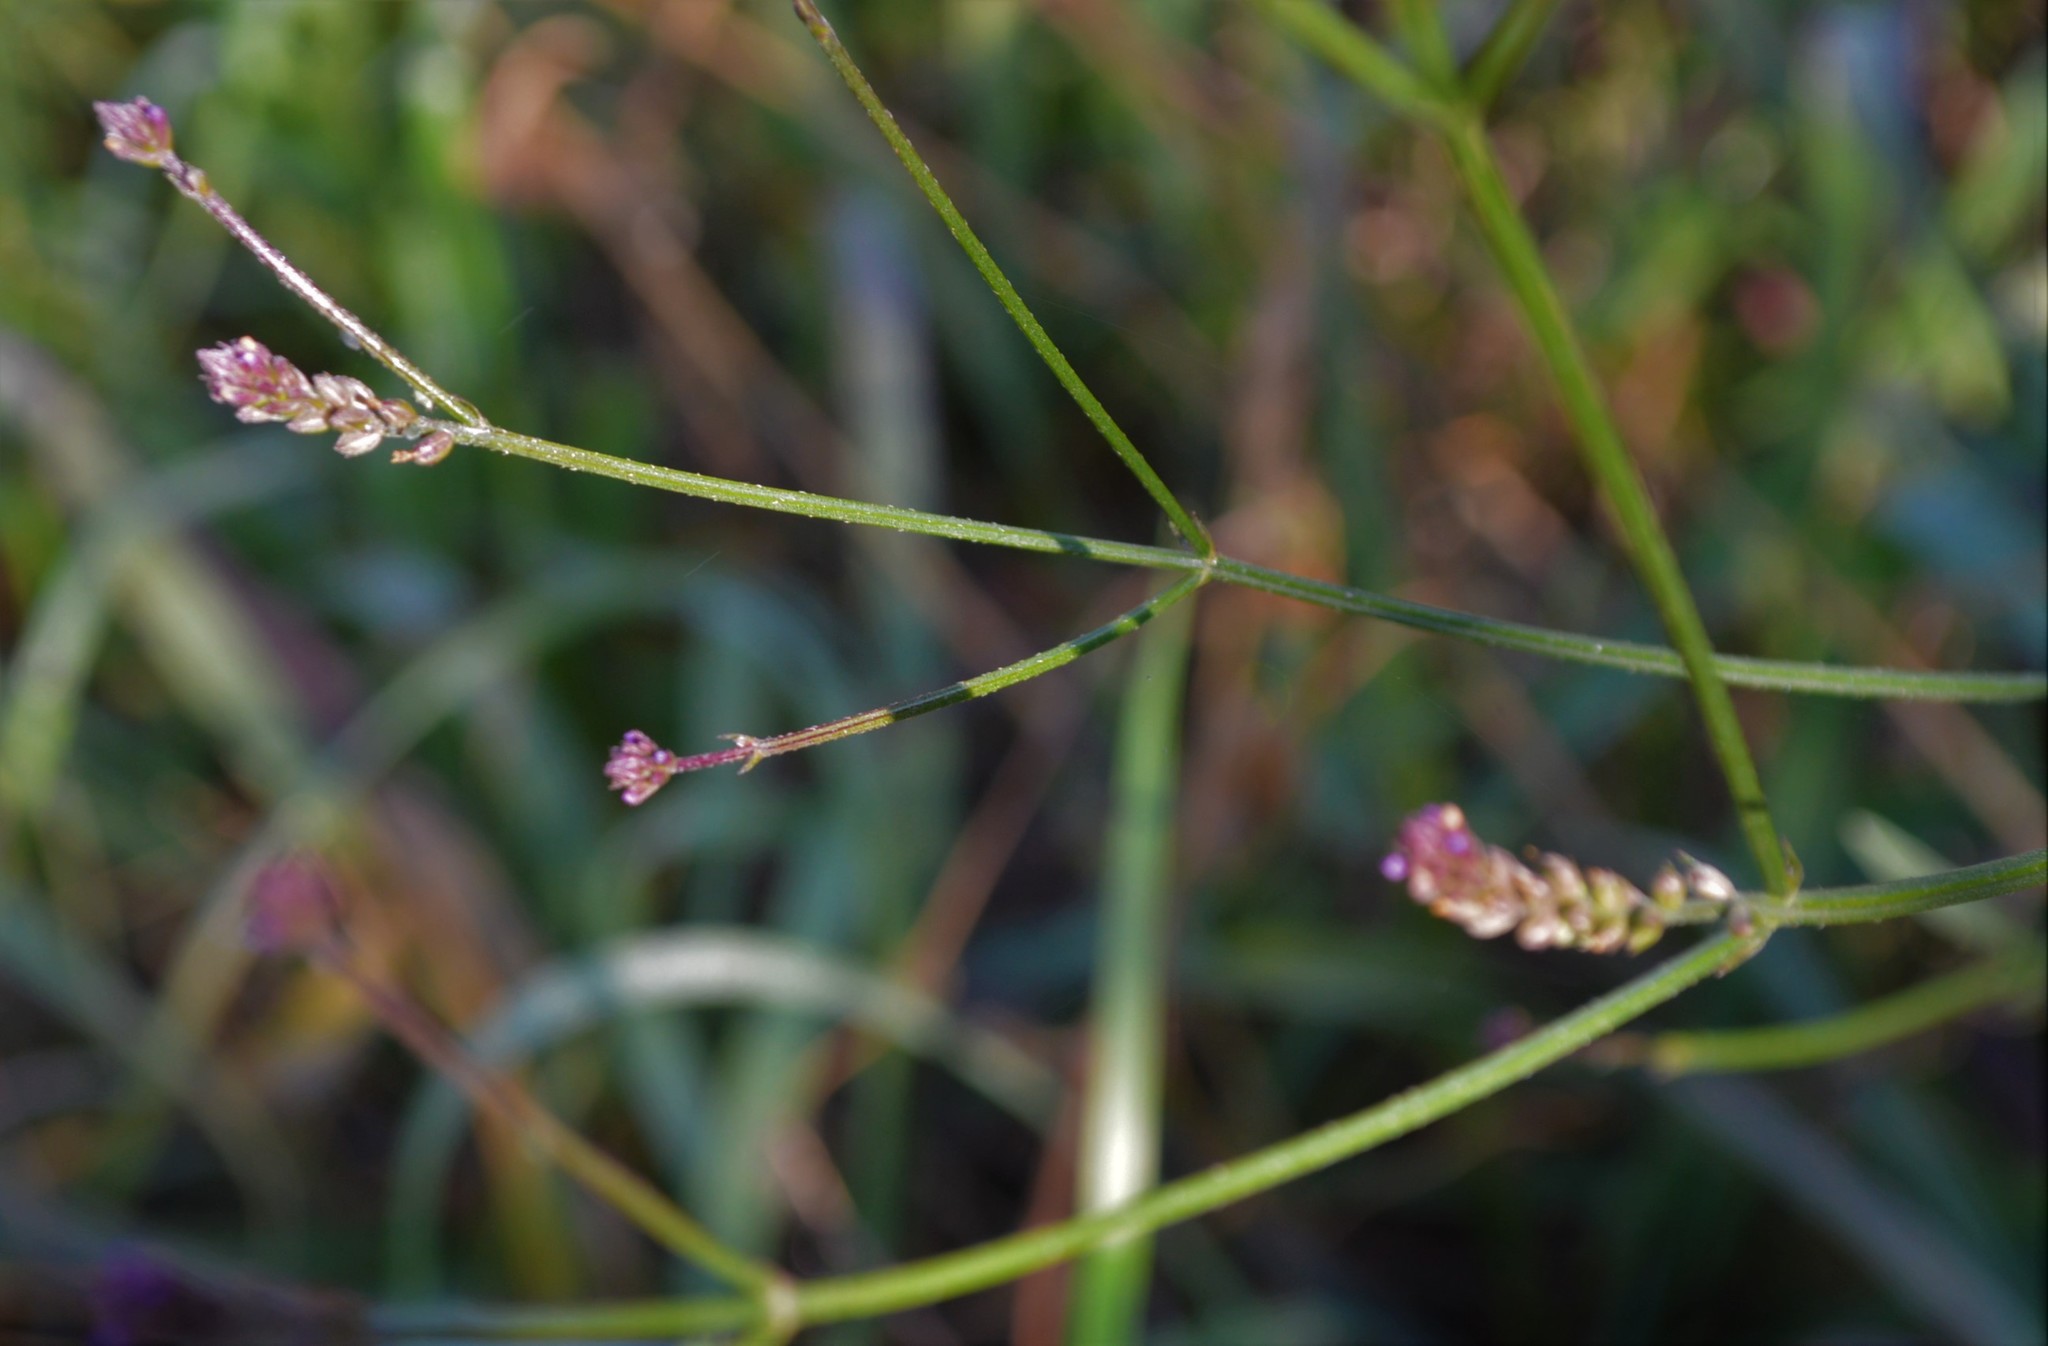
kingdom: Plantae
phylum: Tracheophyta
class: Magnoliopsida
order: Lamiales
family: Verbenaceae
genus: Verbena
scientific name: Verbena brasiliensis
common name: Brazilian vervain
